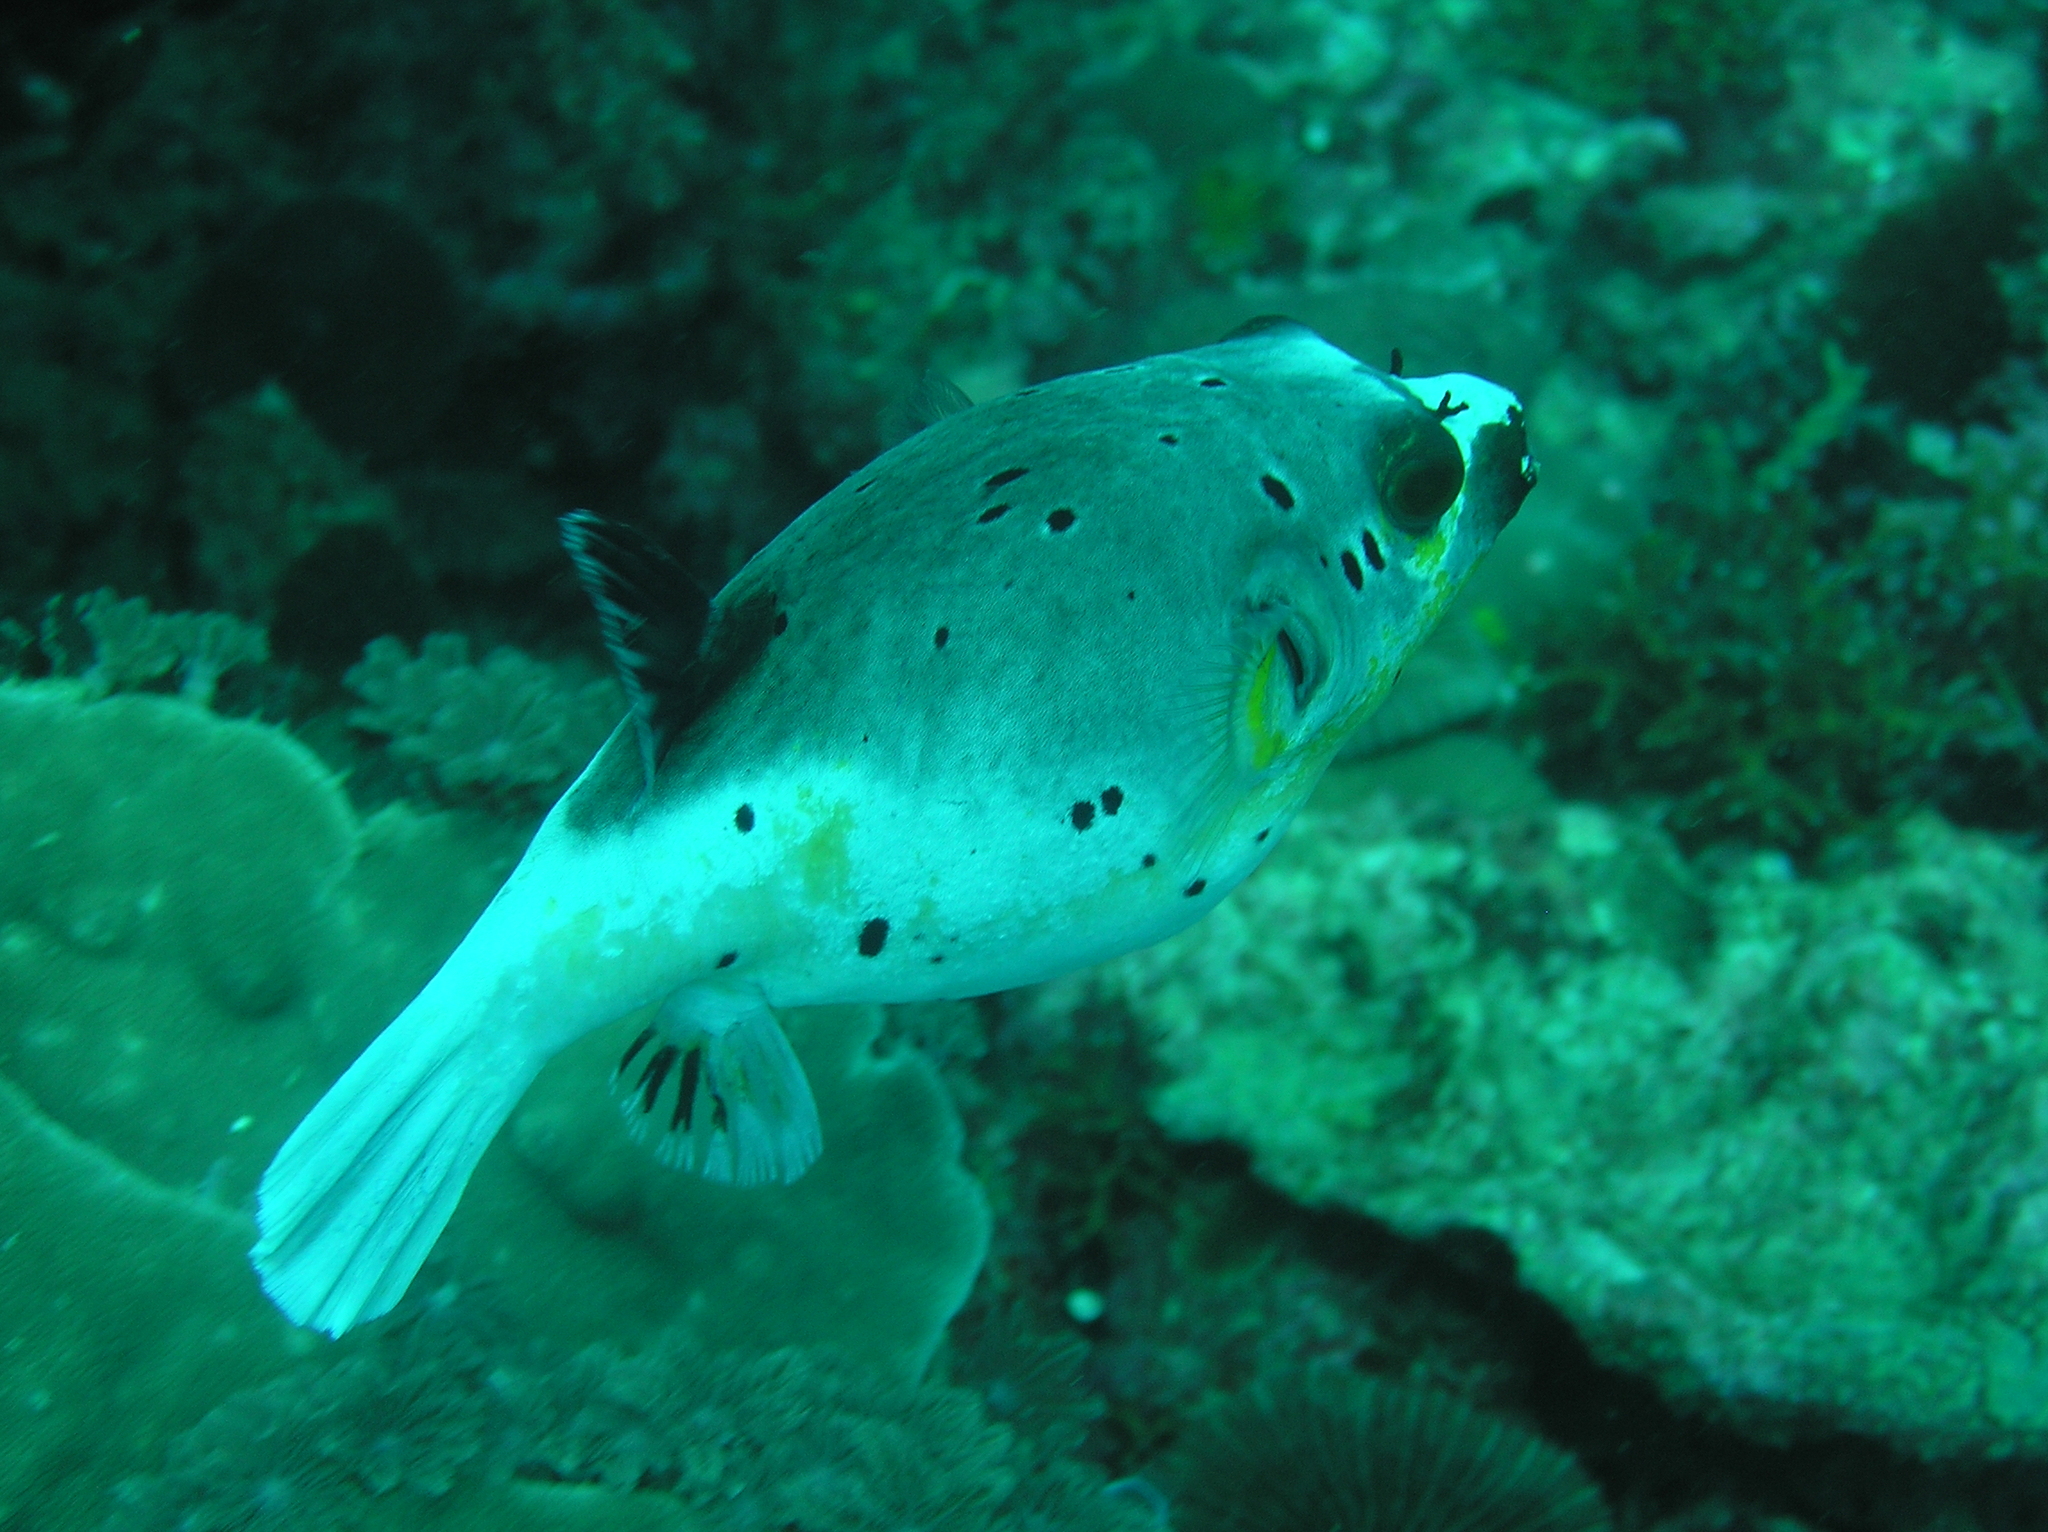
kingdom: Animalia
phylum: Chordata
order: Tetraodontiformes
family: Tetraodontidae
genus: Arothron
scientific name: Arothron nigropunctatus
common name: Black spotted blow fish
